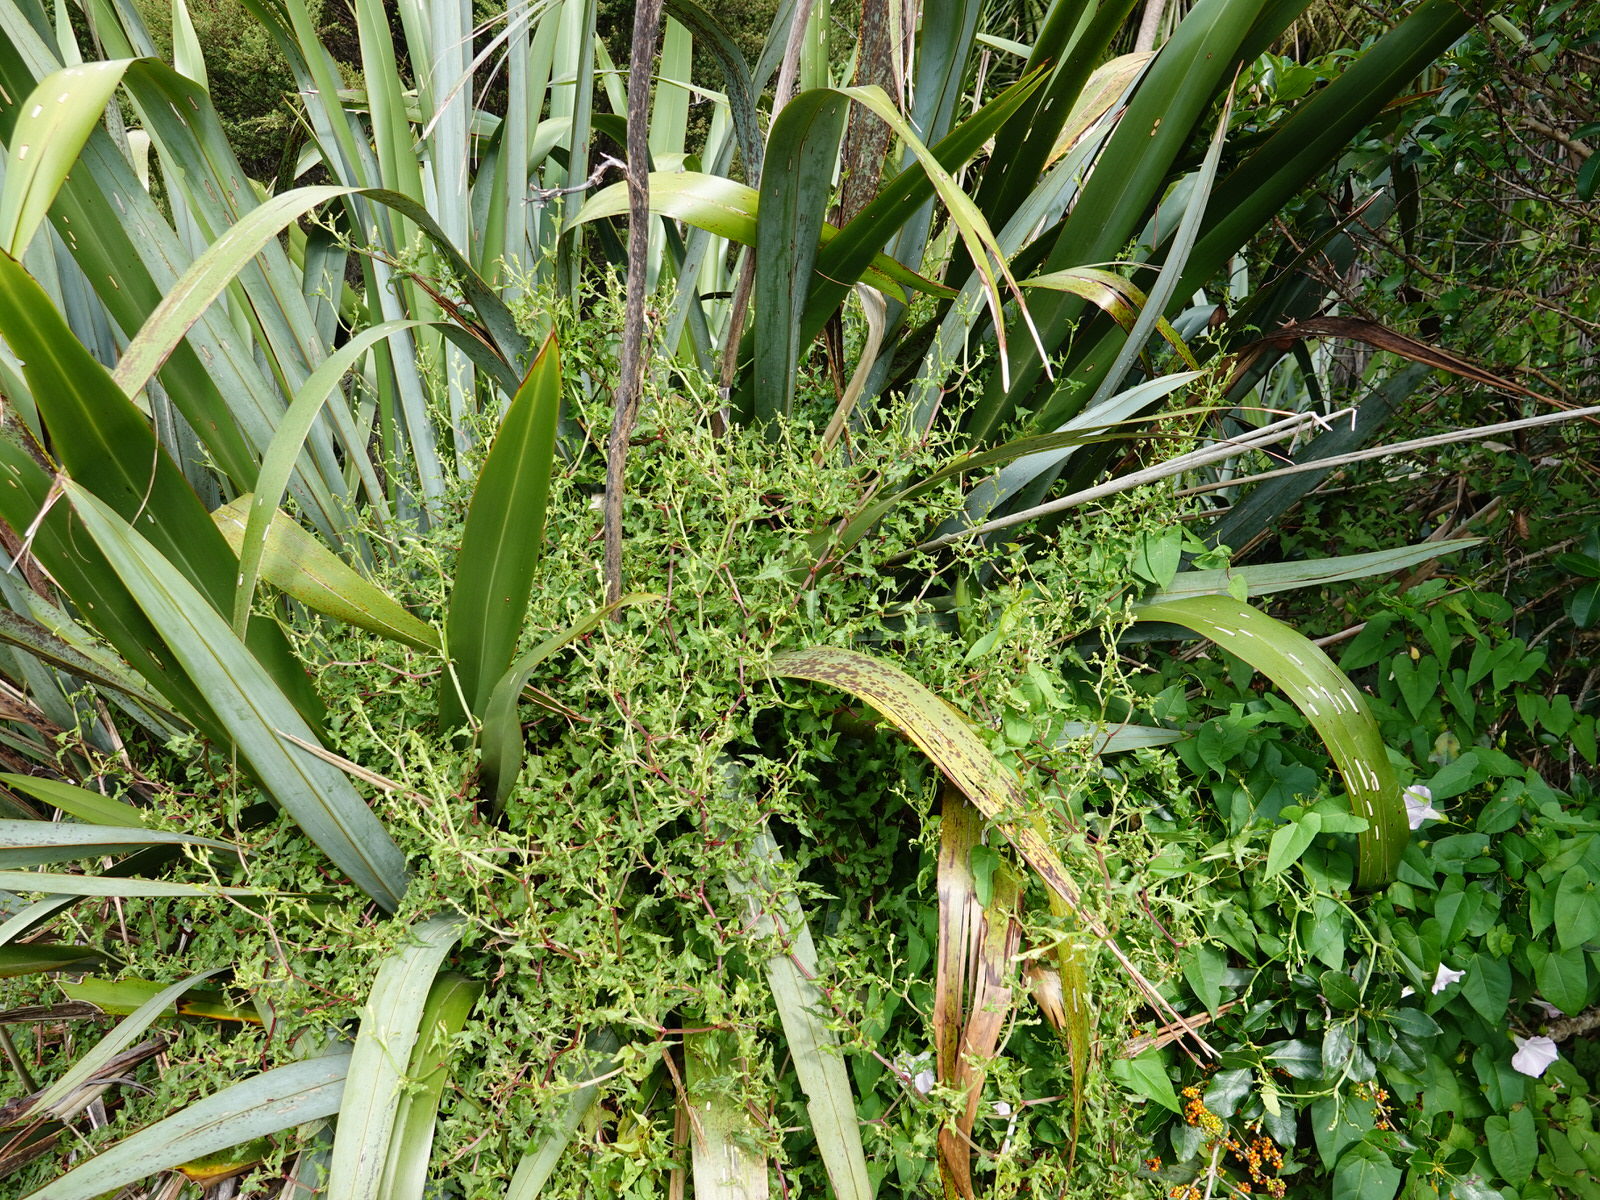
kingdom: Plantae
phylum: Tracheophyta
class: Magnoliopsida
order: Caryophyllales
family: Polygonaceae
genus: Rumex
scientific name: Rumex sagittatus
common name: Climbing dock
